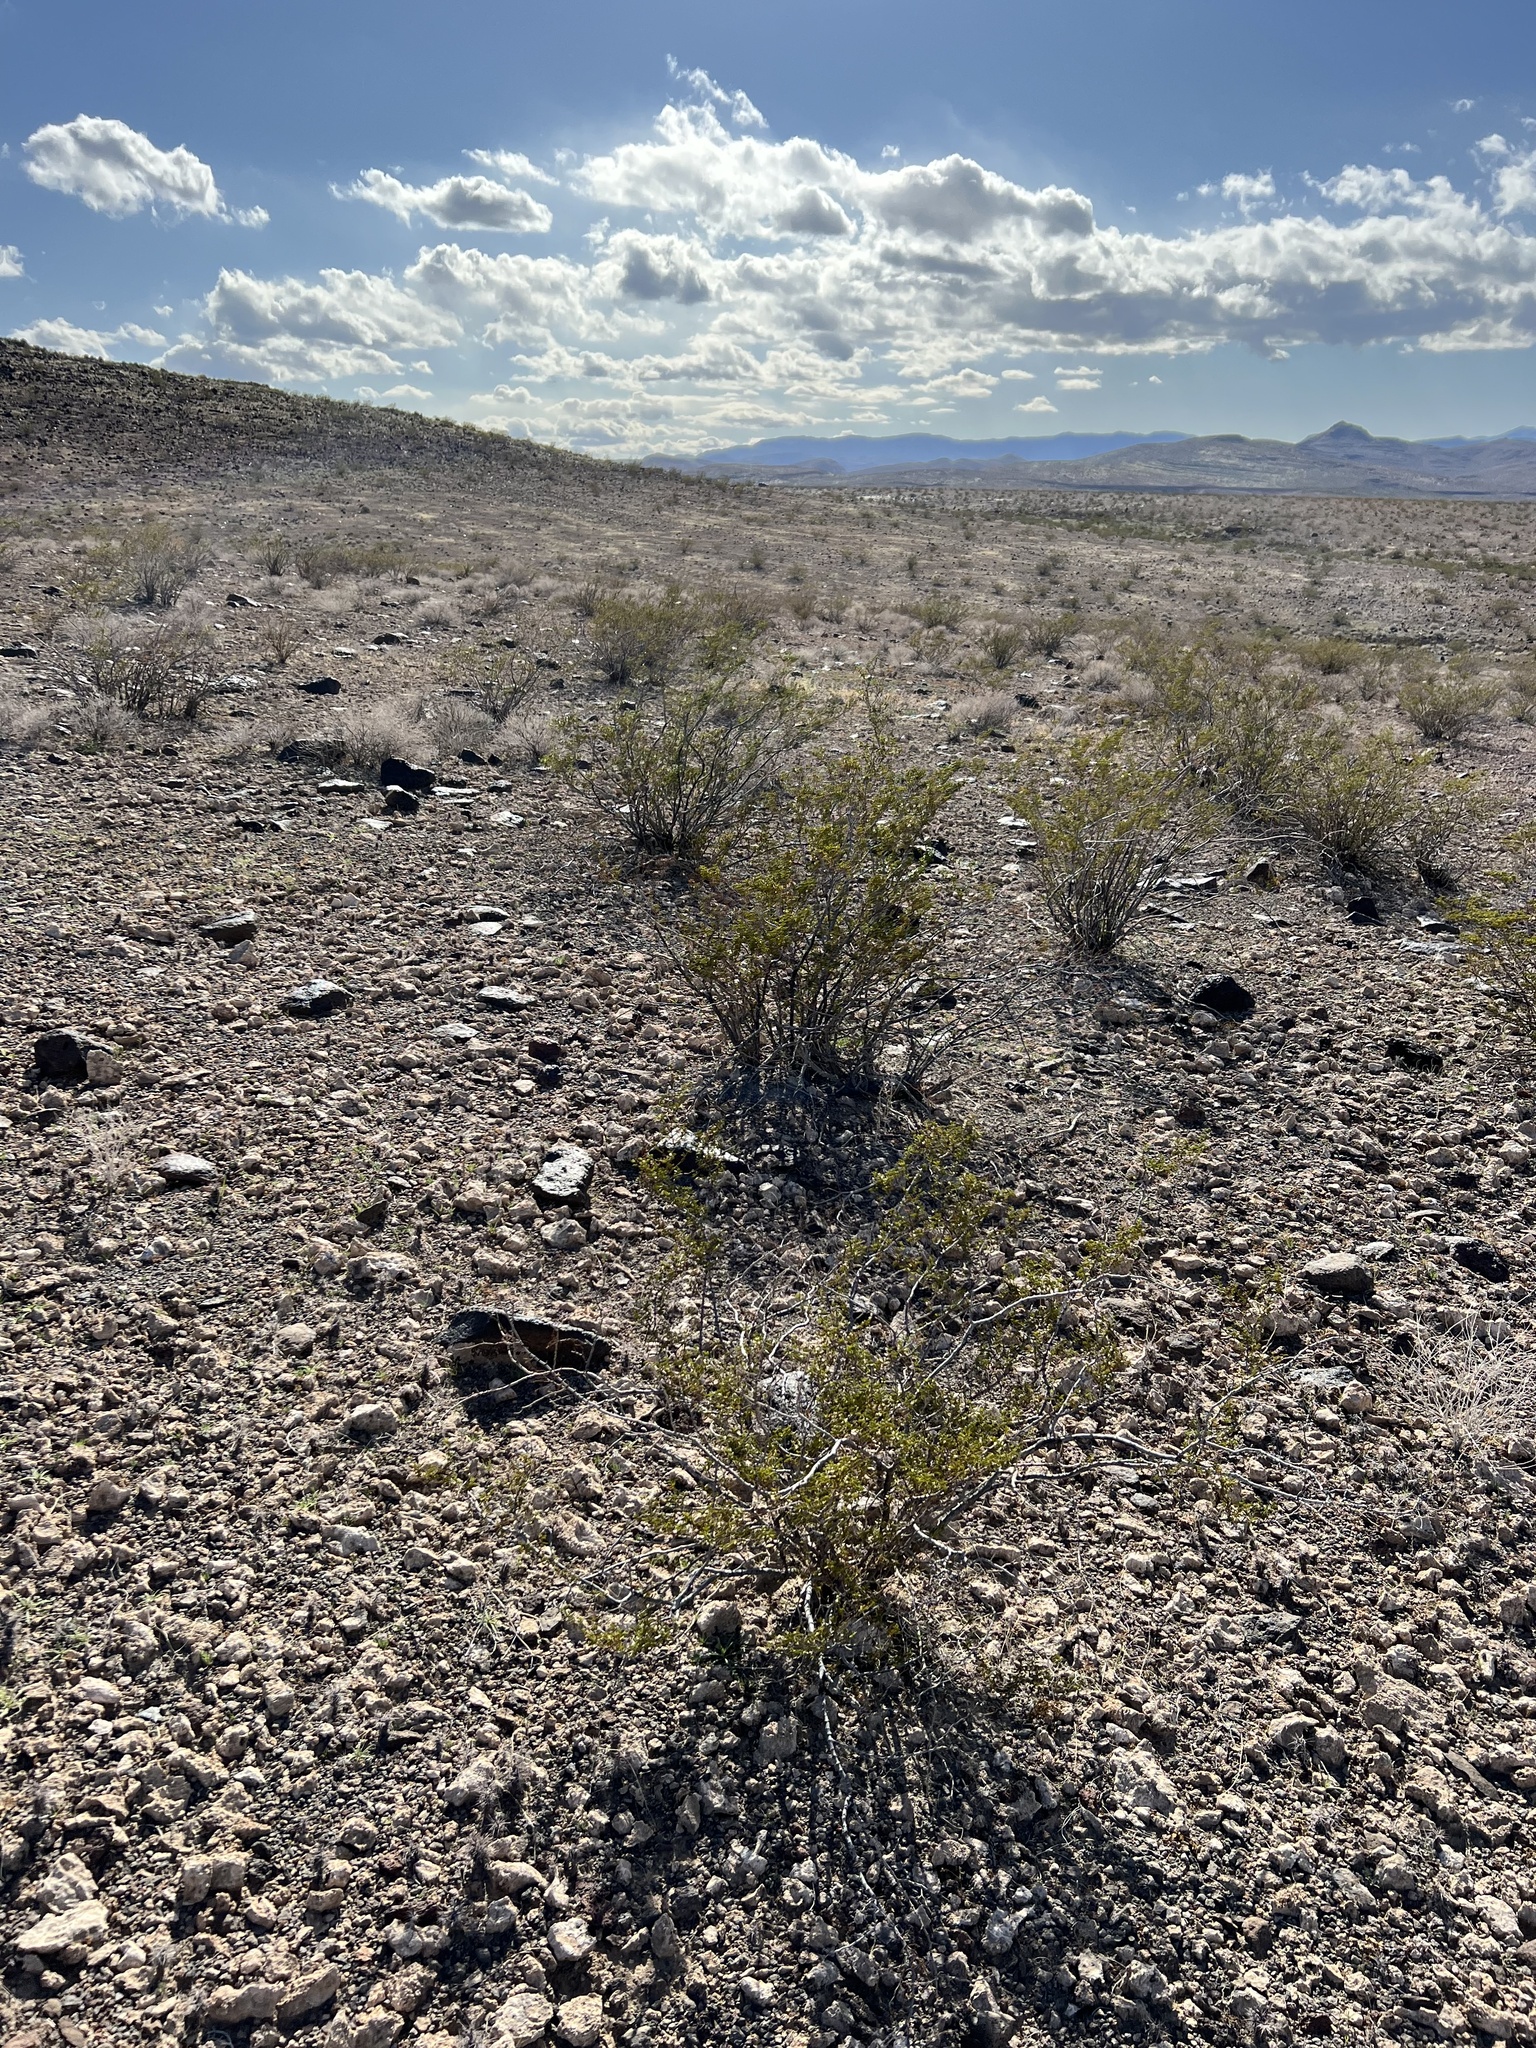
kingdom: Plantae
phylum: Tracheophyta
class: Magnoliopsida
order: Zygophyllales
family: Zygophyllaceae
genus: Larrea
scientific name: Larrea tridentata
